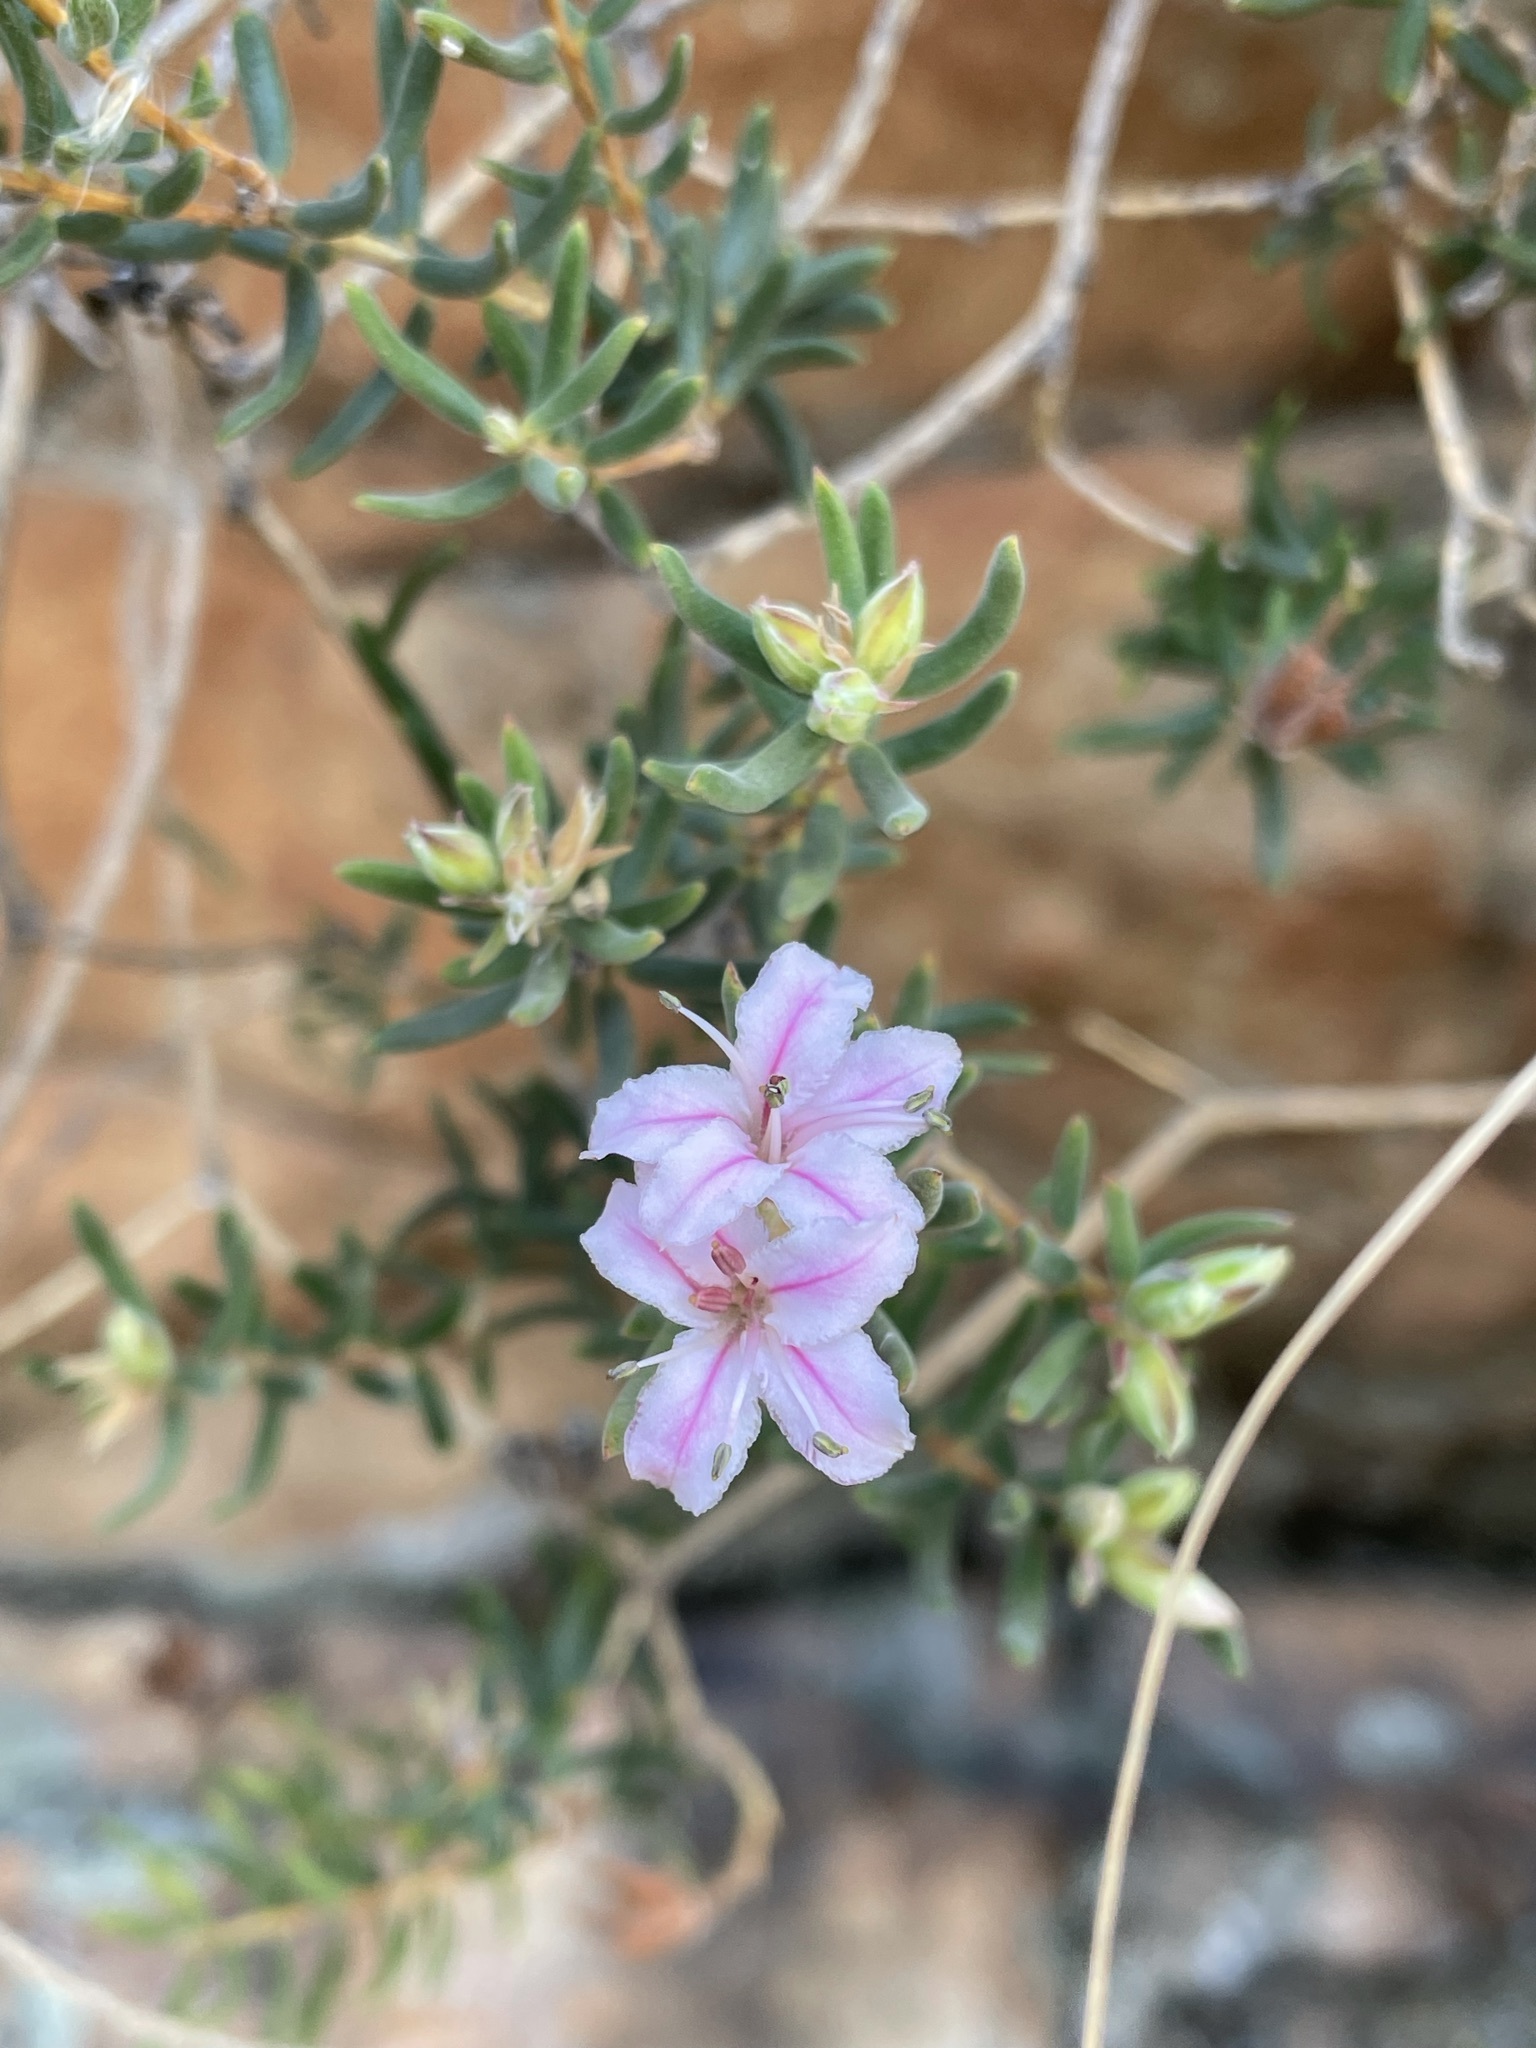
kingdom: Plantae
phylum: Tracheophyta
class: Magnoliopsida
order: Sapindales
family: Rutaceae
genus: Phyllosma
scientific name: Phyllosma capensis
